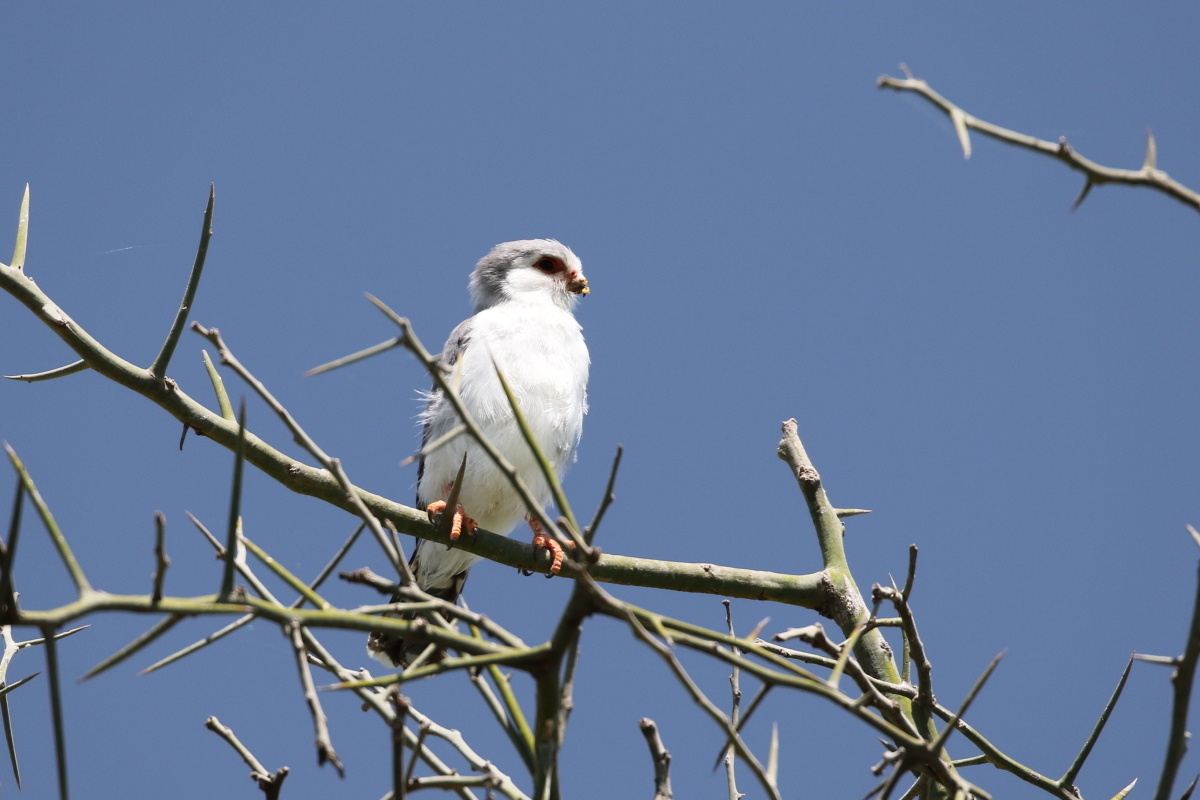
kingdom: Animalia
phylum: Chordata
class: Aves
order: Falconiformes
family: Falconidae
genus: Polihierax
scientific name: Polihierax semitorquatus
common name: Pygmy falcon
